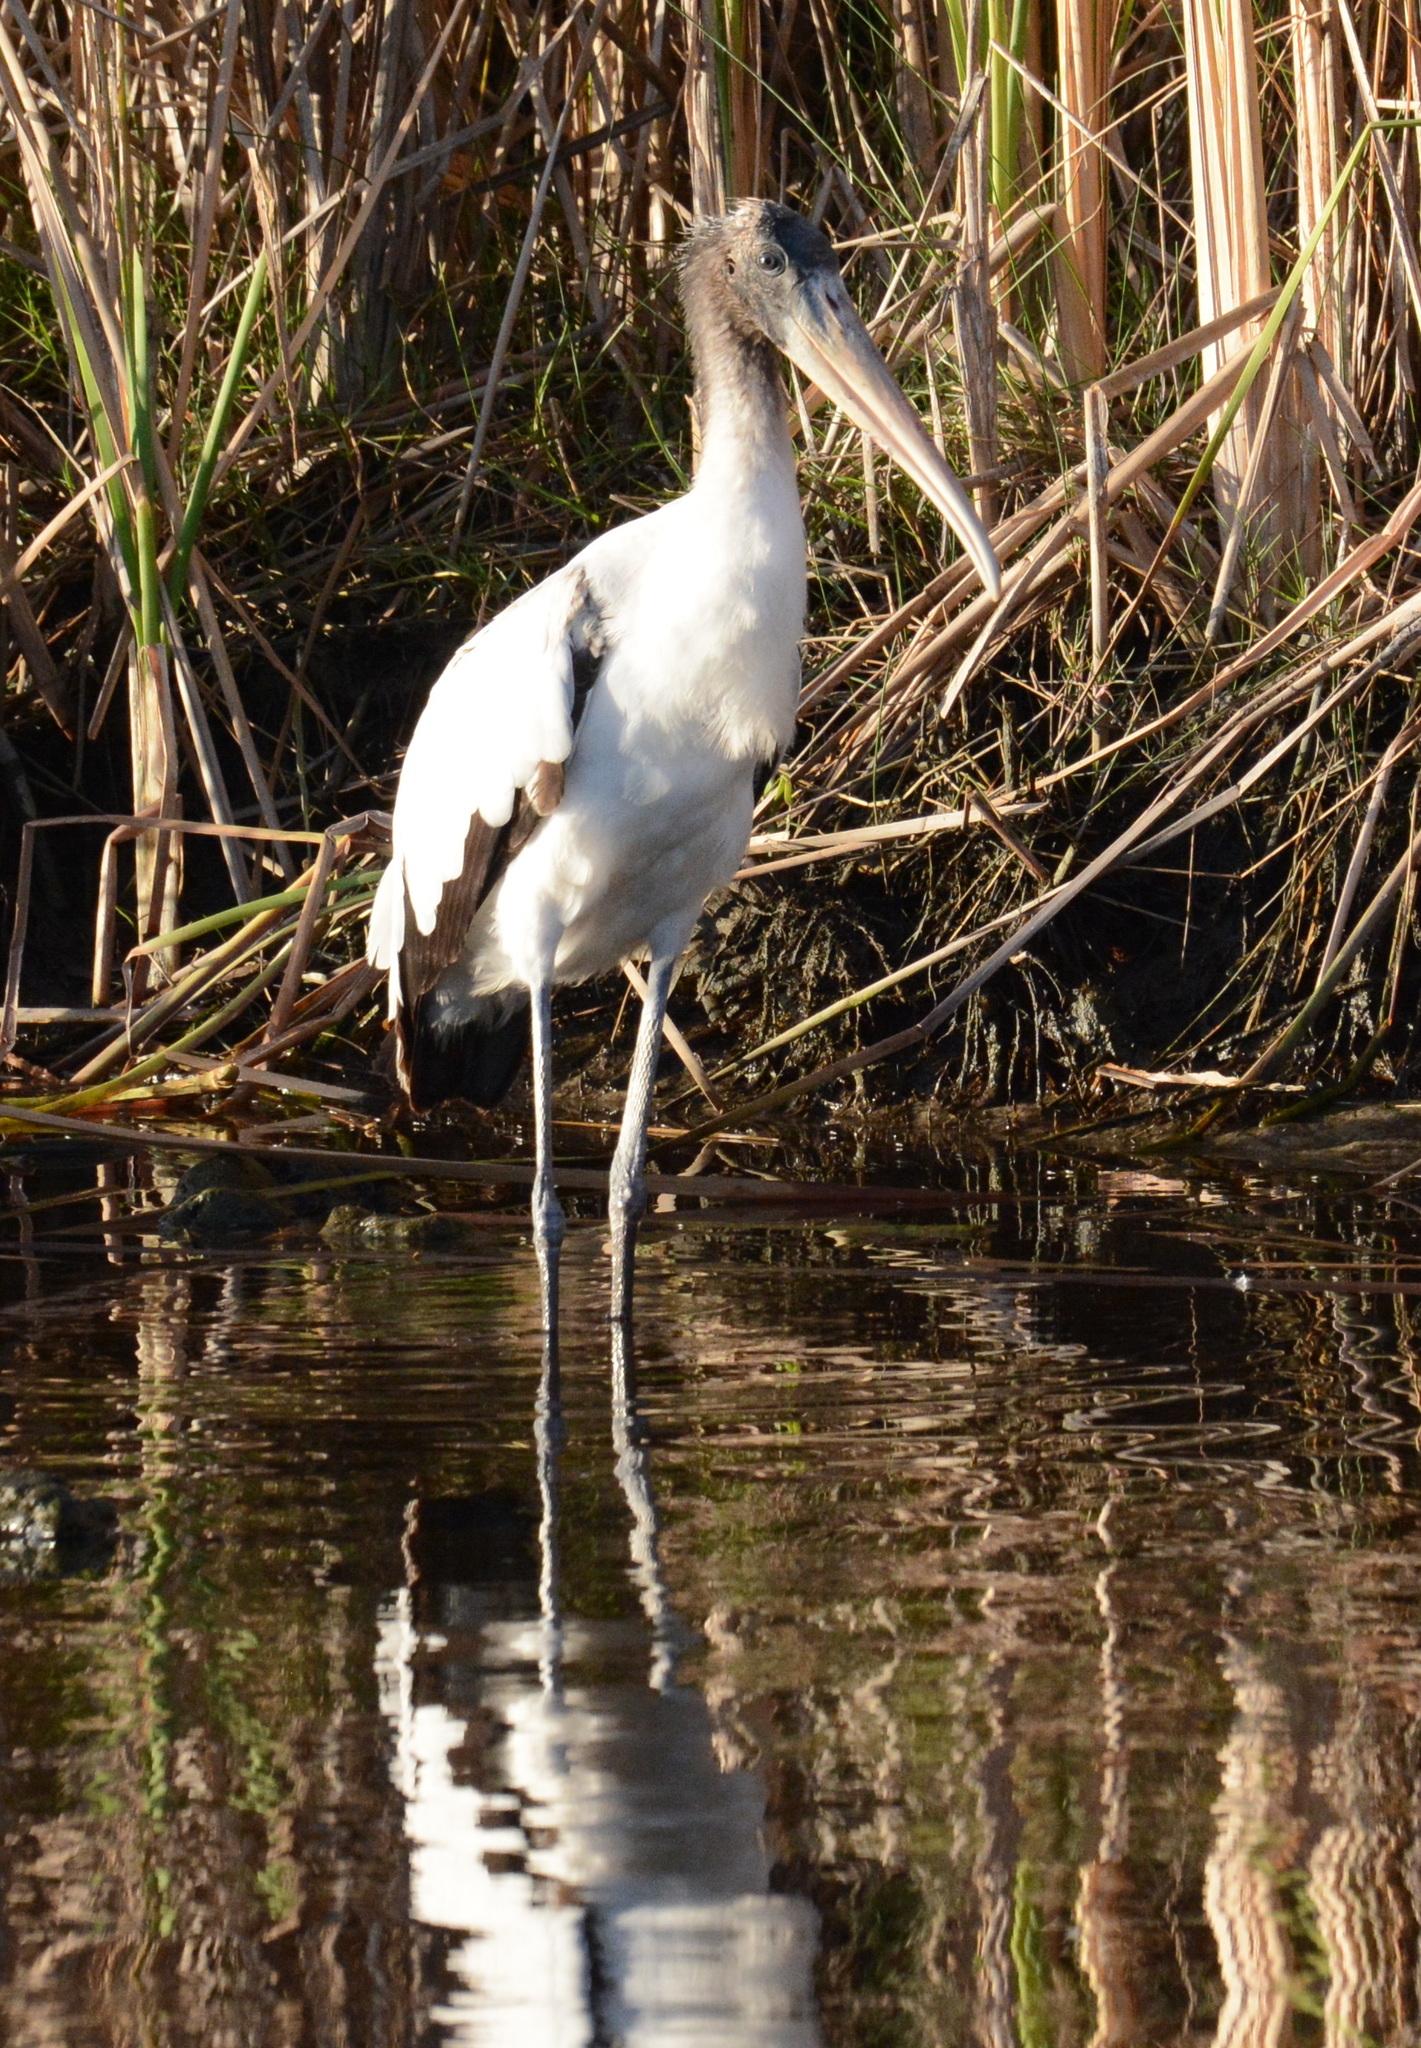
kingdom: Animalia
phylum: Chordata
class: Aves
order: Ciconiiformes
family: Ciconiidae
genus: Mycteria
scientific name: Mycteria americana
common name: Wood stork
